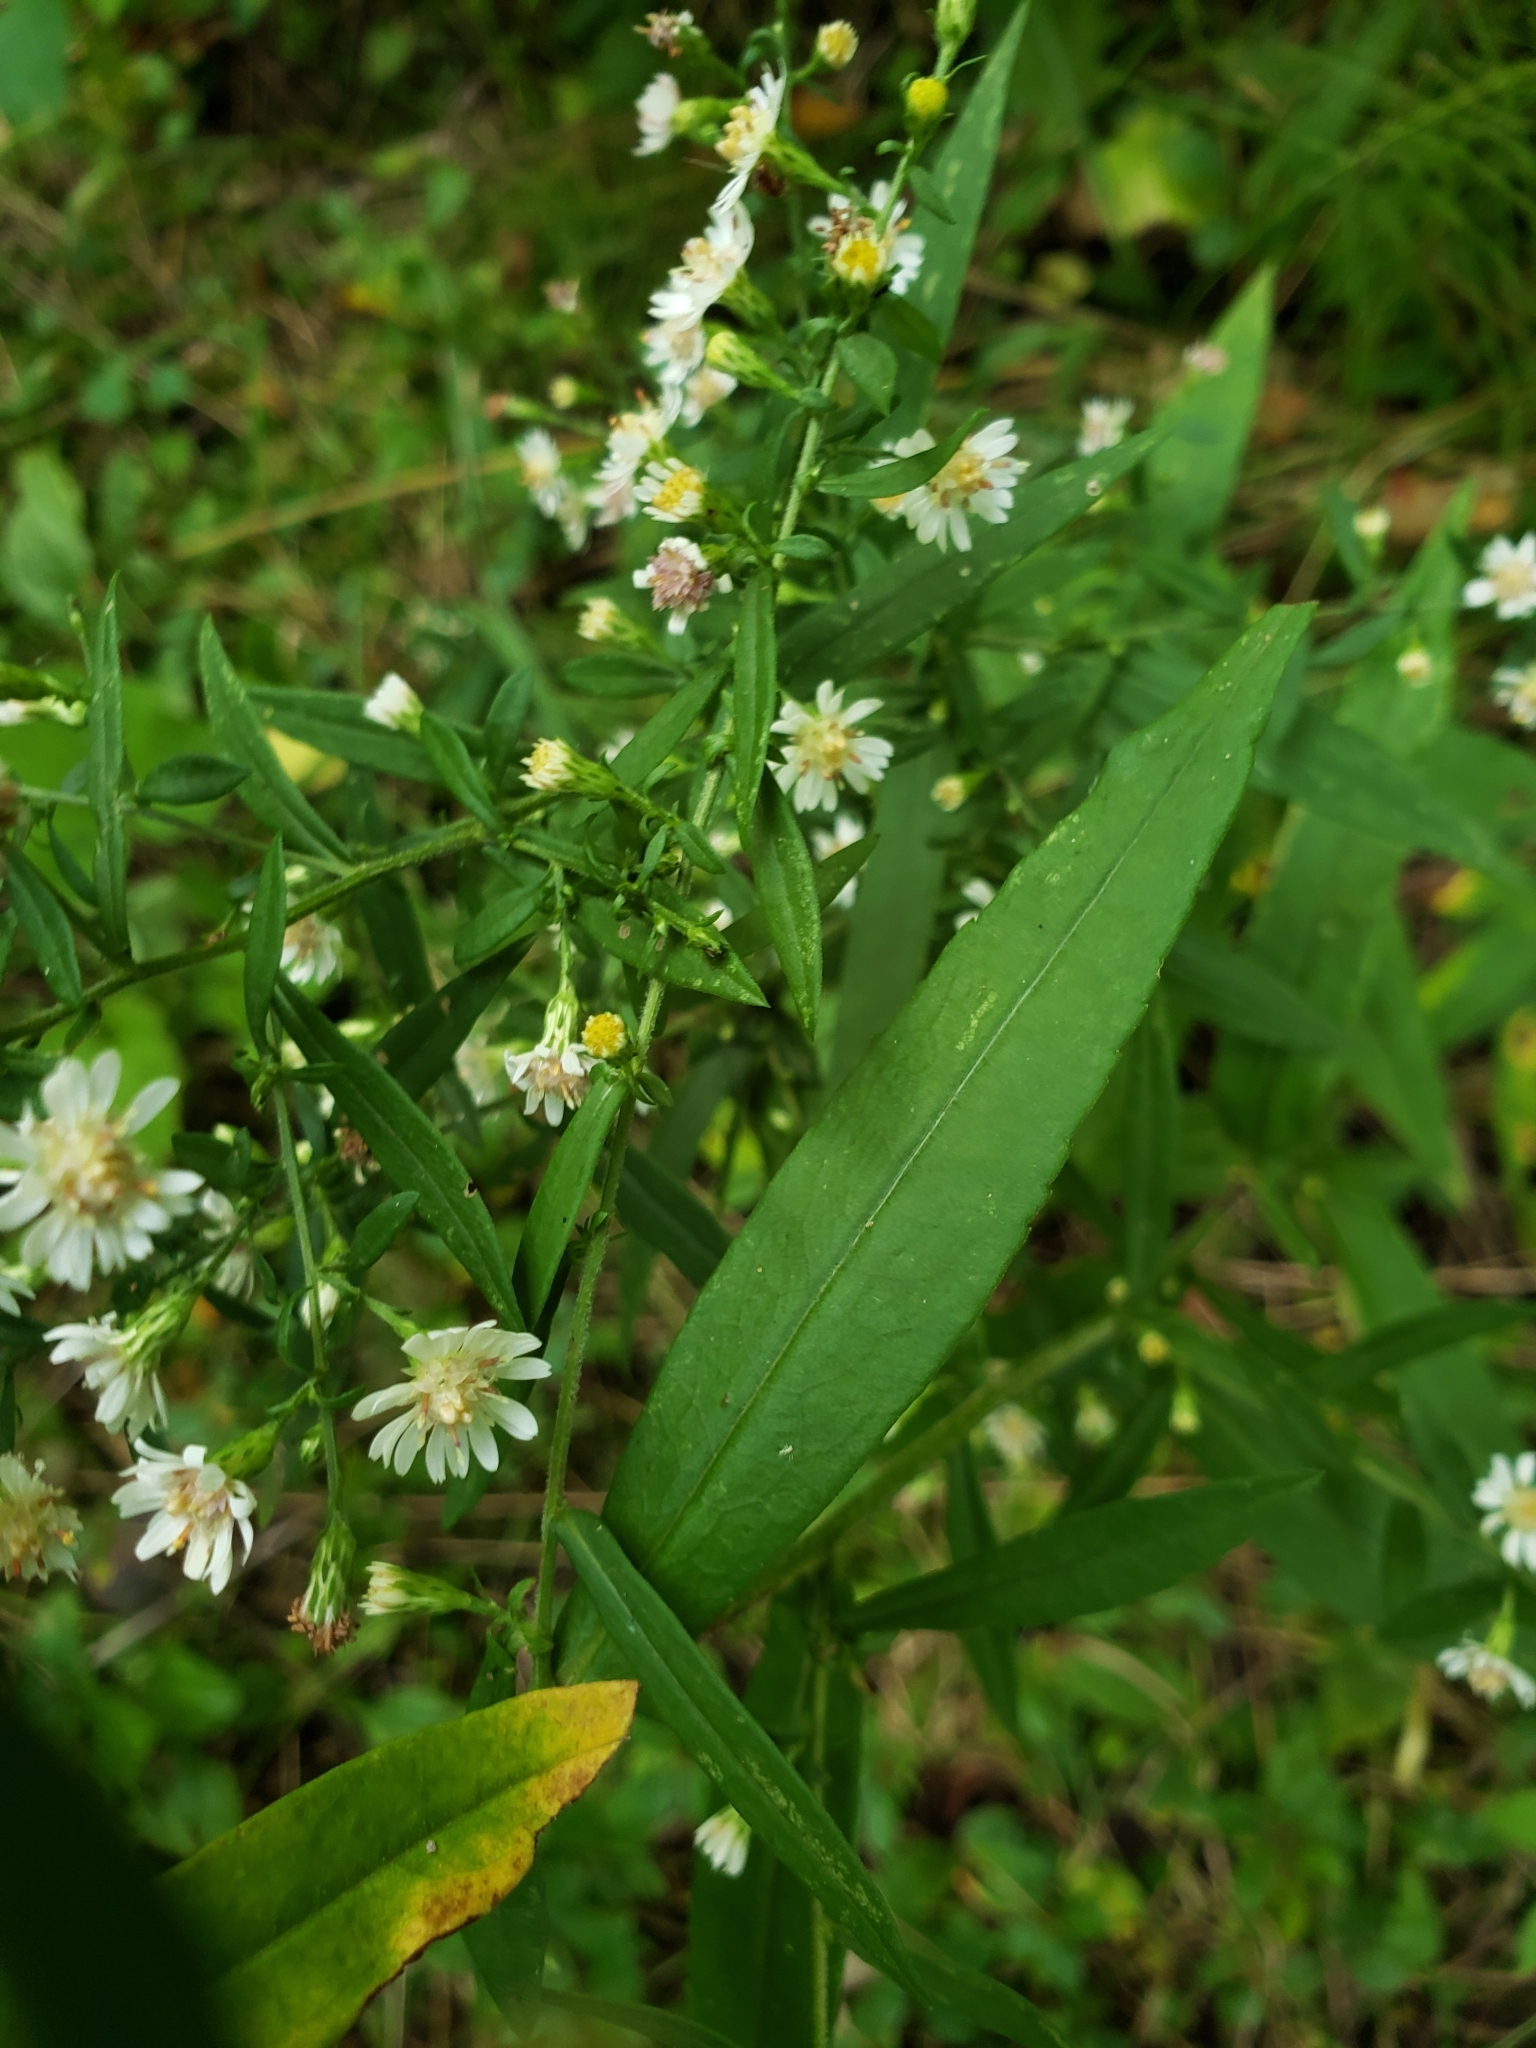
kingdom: Plantae
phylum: Tracheophyta
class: Magnoliopsida
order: Asterales
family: Asteraceae
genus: Symphyotrichum
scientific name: Symphyotrichum lateriflorum
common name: Calico aster
